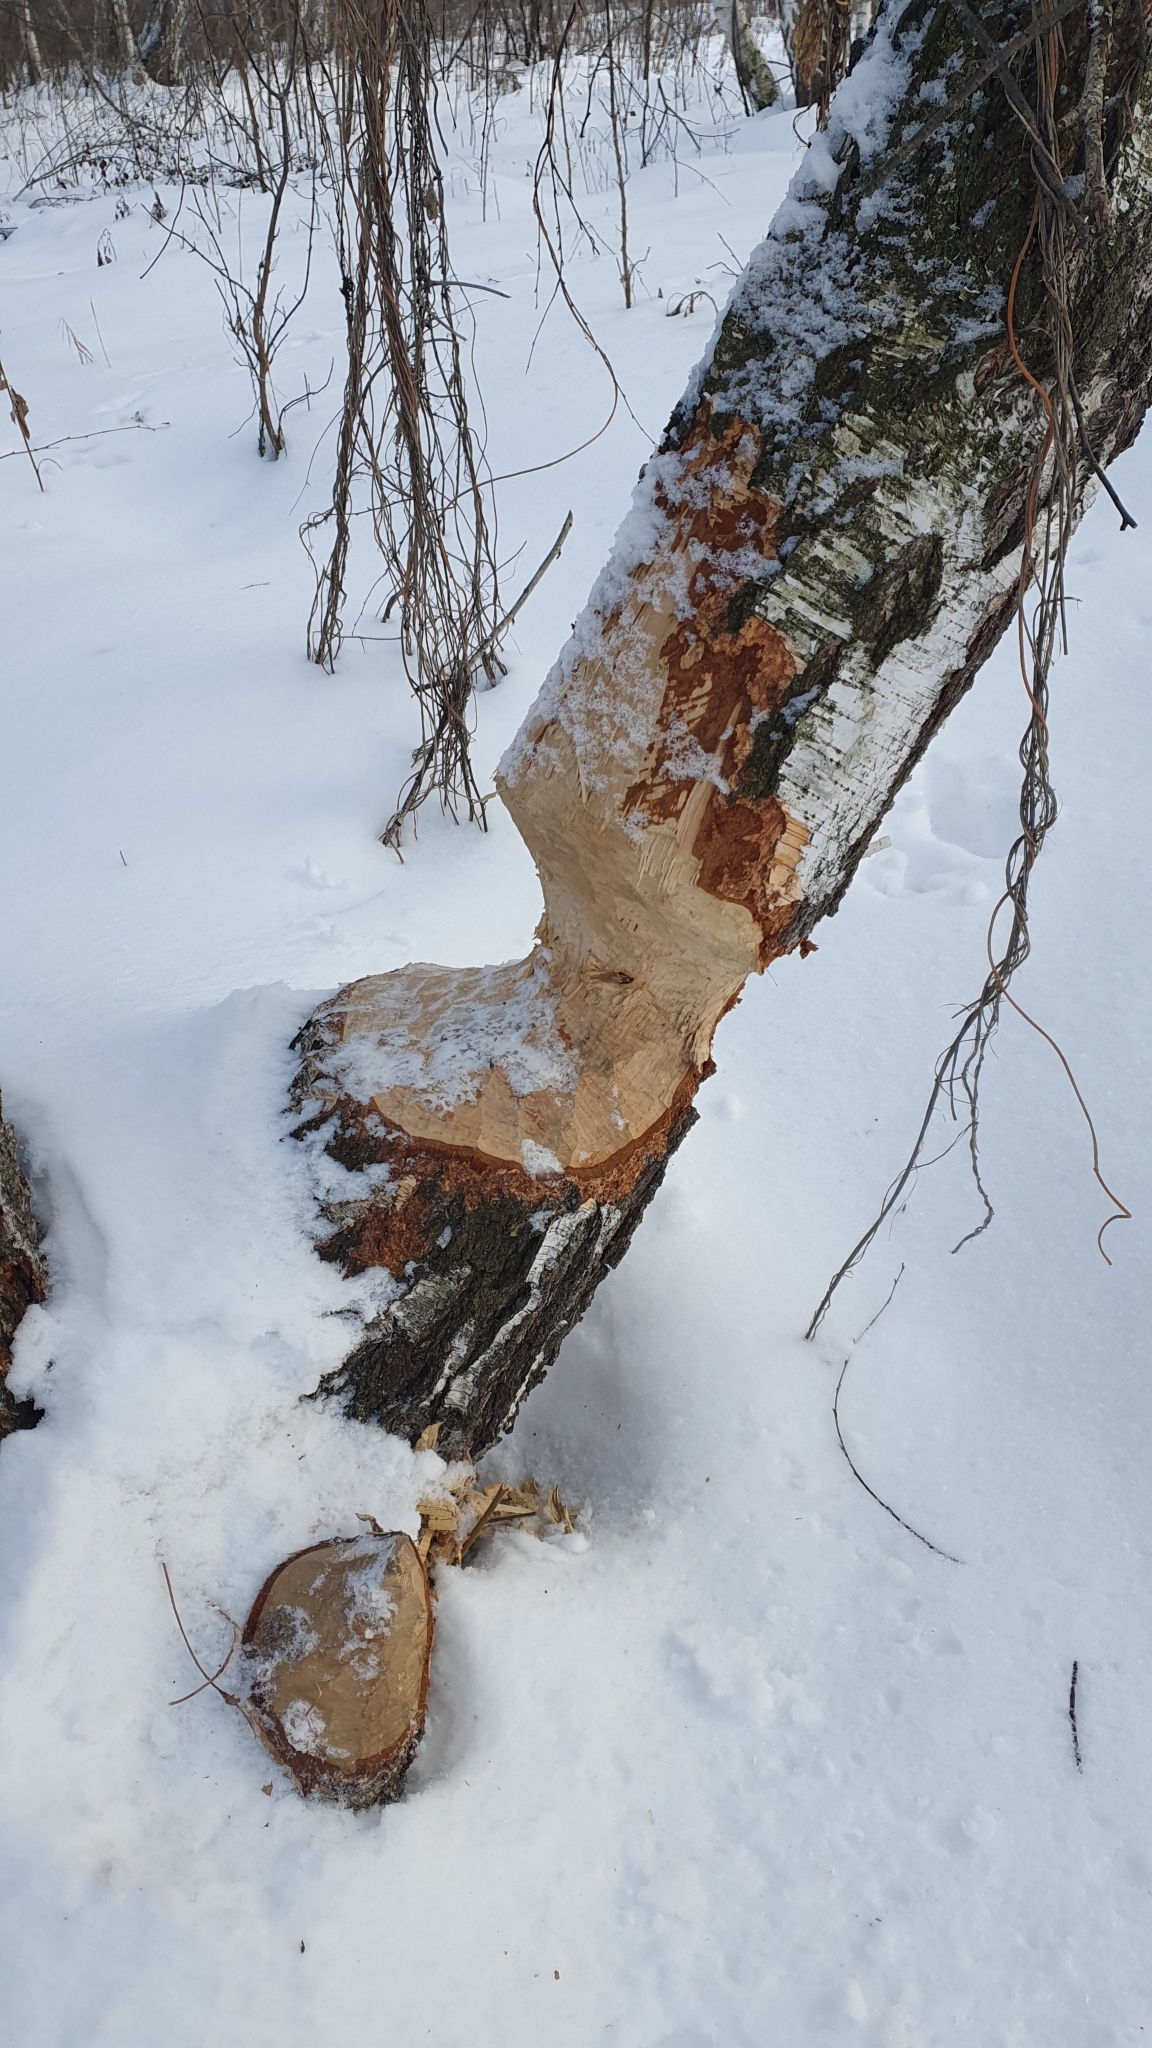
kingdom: Animalia
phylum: Chordata
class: Mammalia
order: Rodentia
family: Castoridae
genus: Castor
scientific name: Castor fiber
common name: Eurasian beaver
